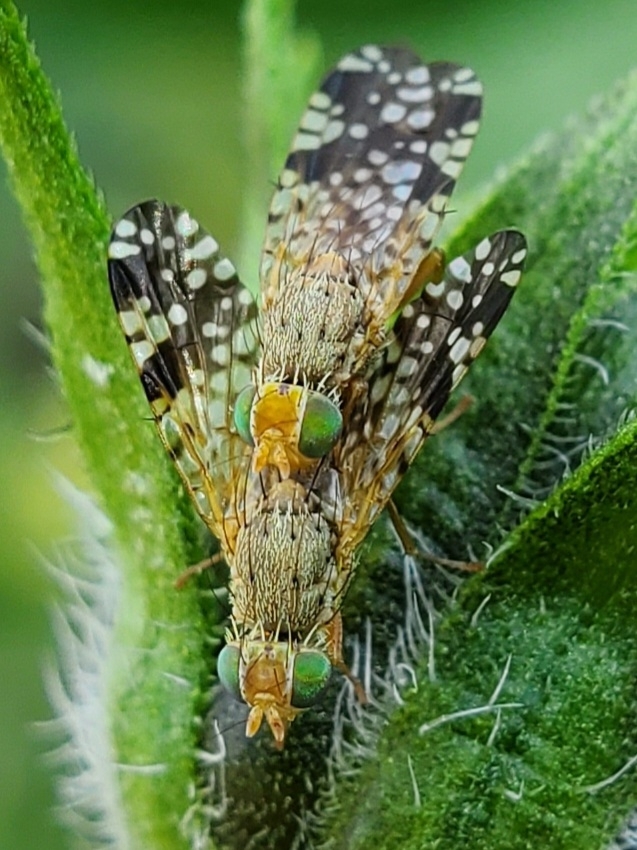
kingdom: Animalia
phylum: Arthropoda
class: Insecta
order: Diptera
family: Tephritidae
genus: Neotephritis
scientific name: Neotephritis finalis
